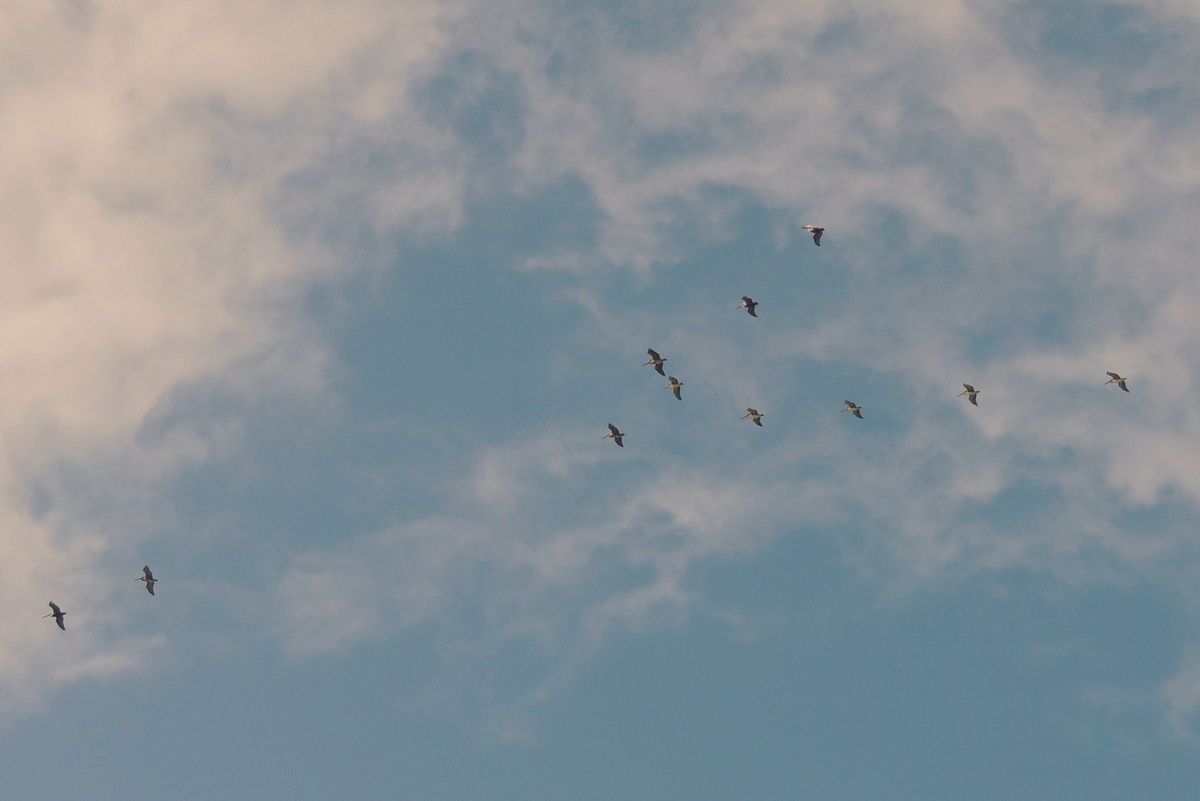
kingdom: Animalia
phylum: Chordata
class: Aves
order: Pelecaniformes
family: Pelecanidae
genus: Pelecanus
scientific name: Pelecanus occidentalis
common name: Brown pelican
